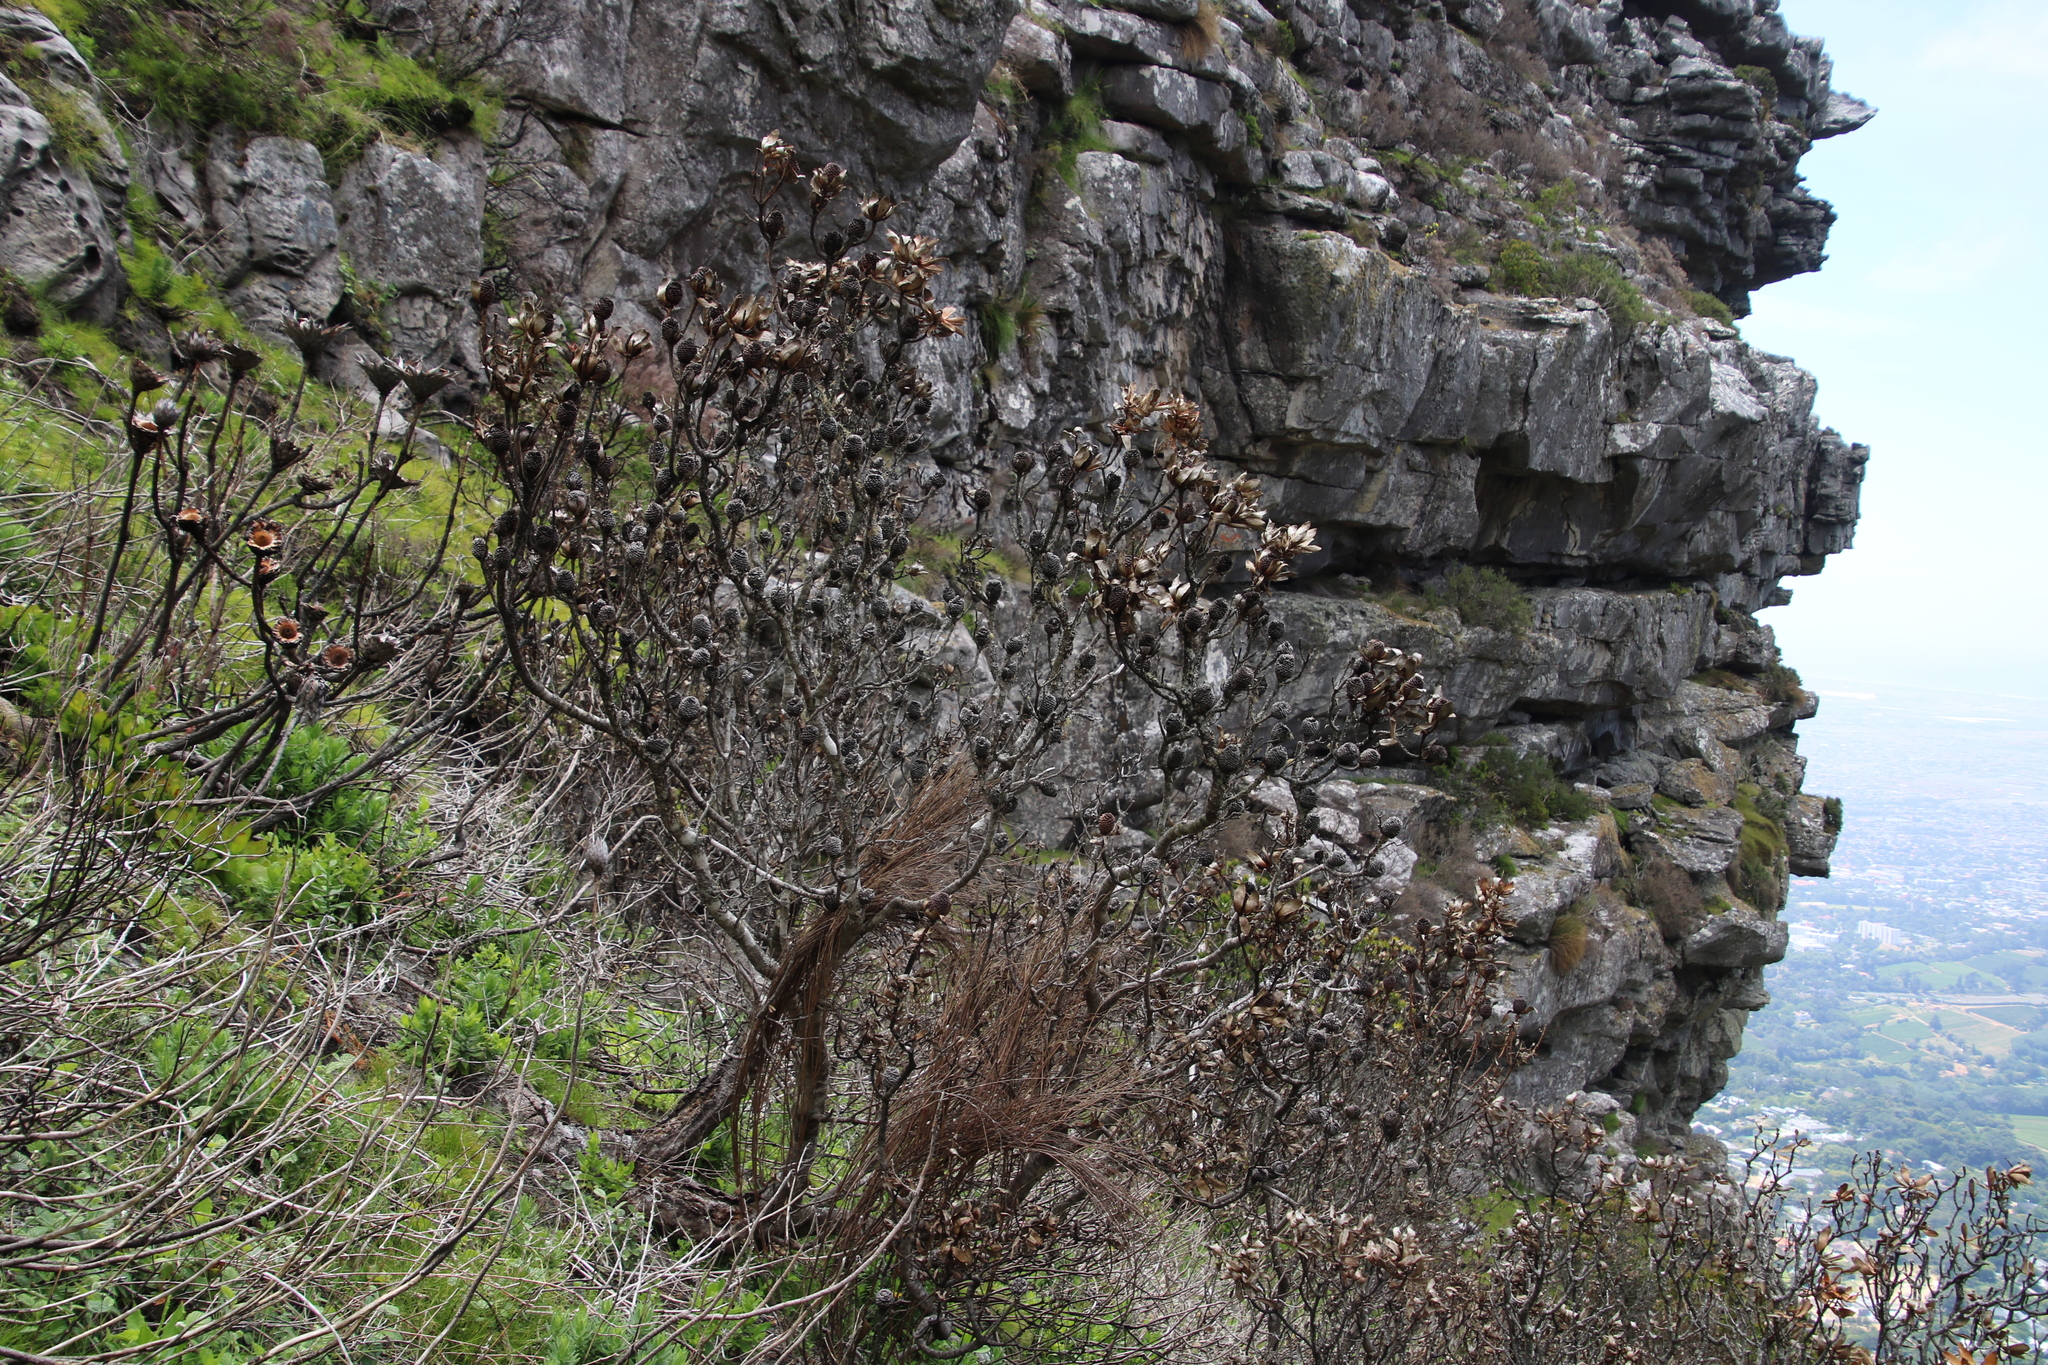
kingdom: Plantae
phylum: Tracheophyta
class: Magnoliopsida
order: Proteales
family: Proteaceae
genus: Leucadendron
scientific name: Leucadendron strobilinum
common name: Mountain rose
